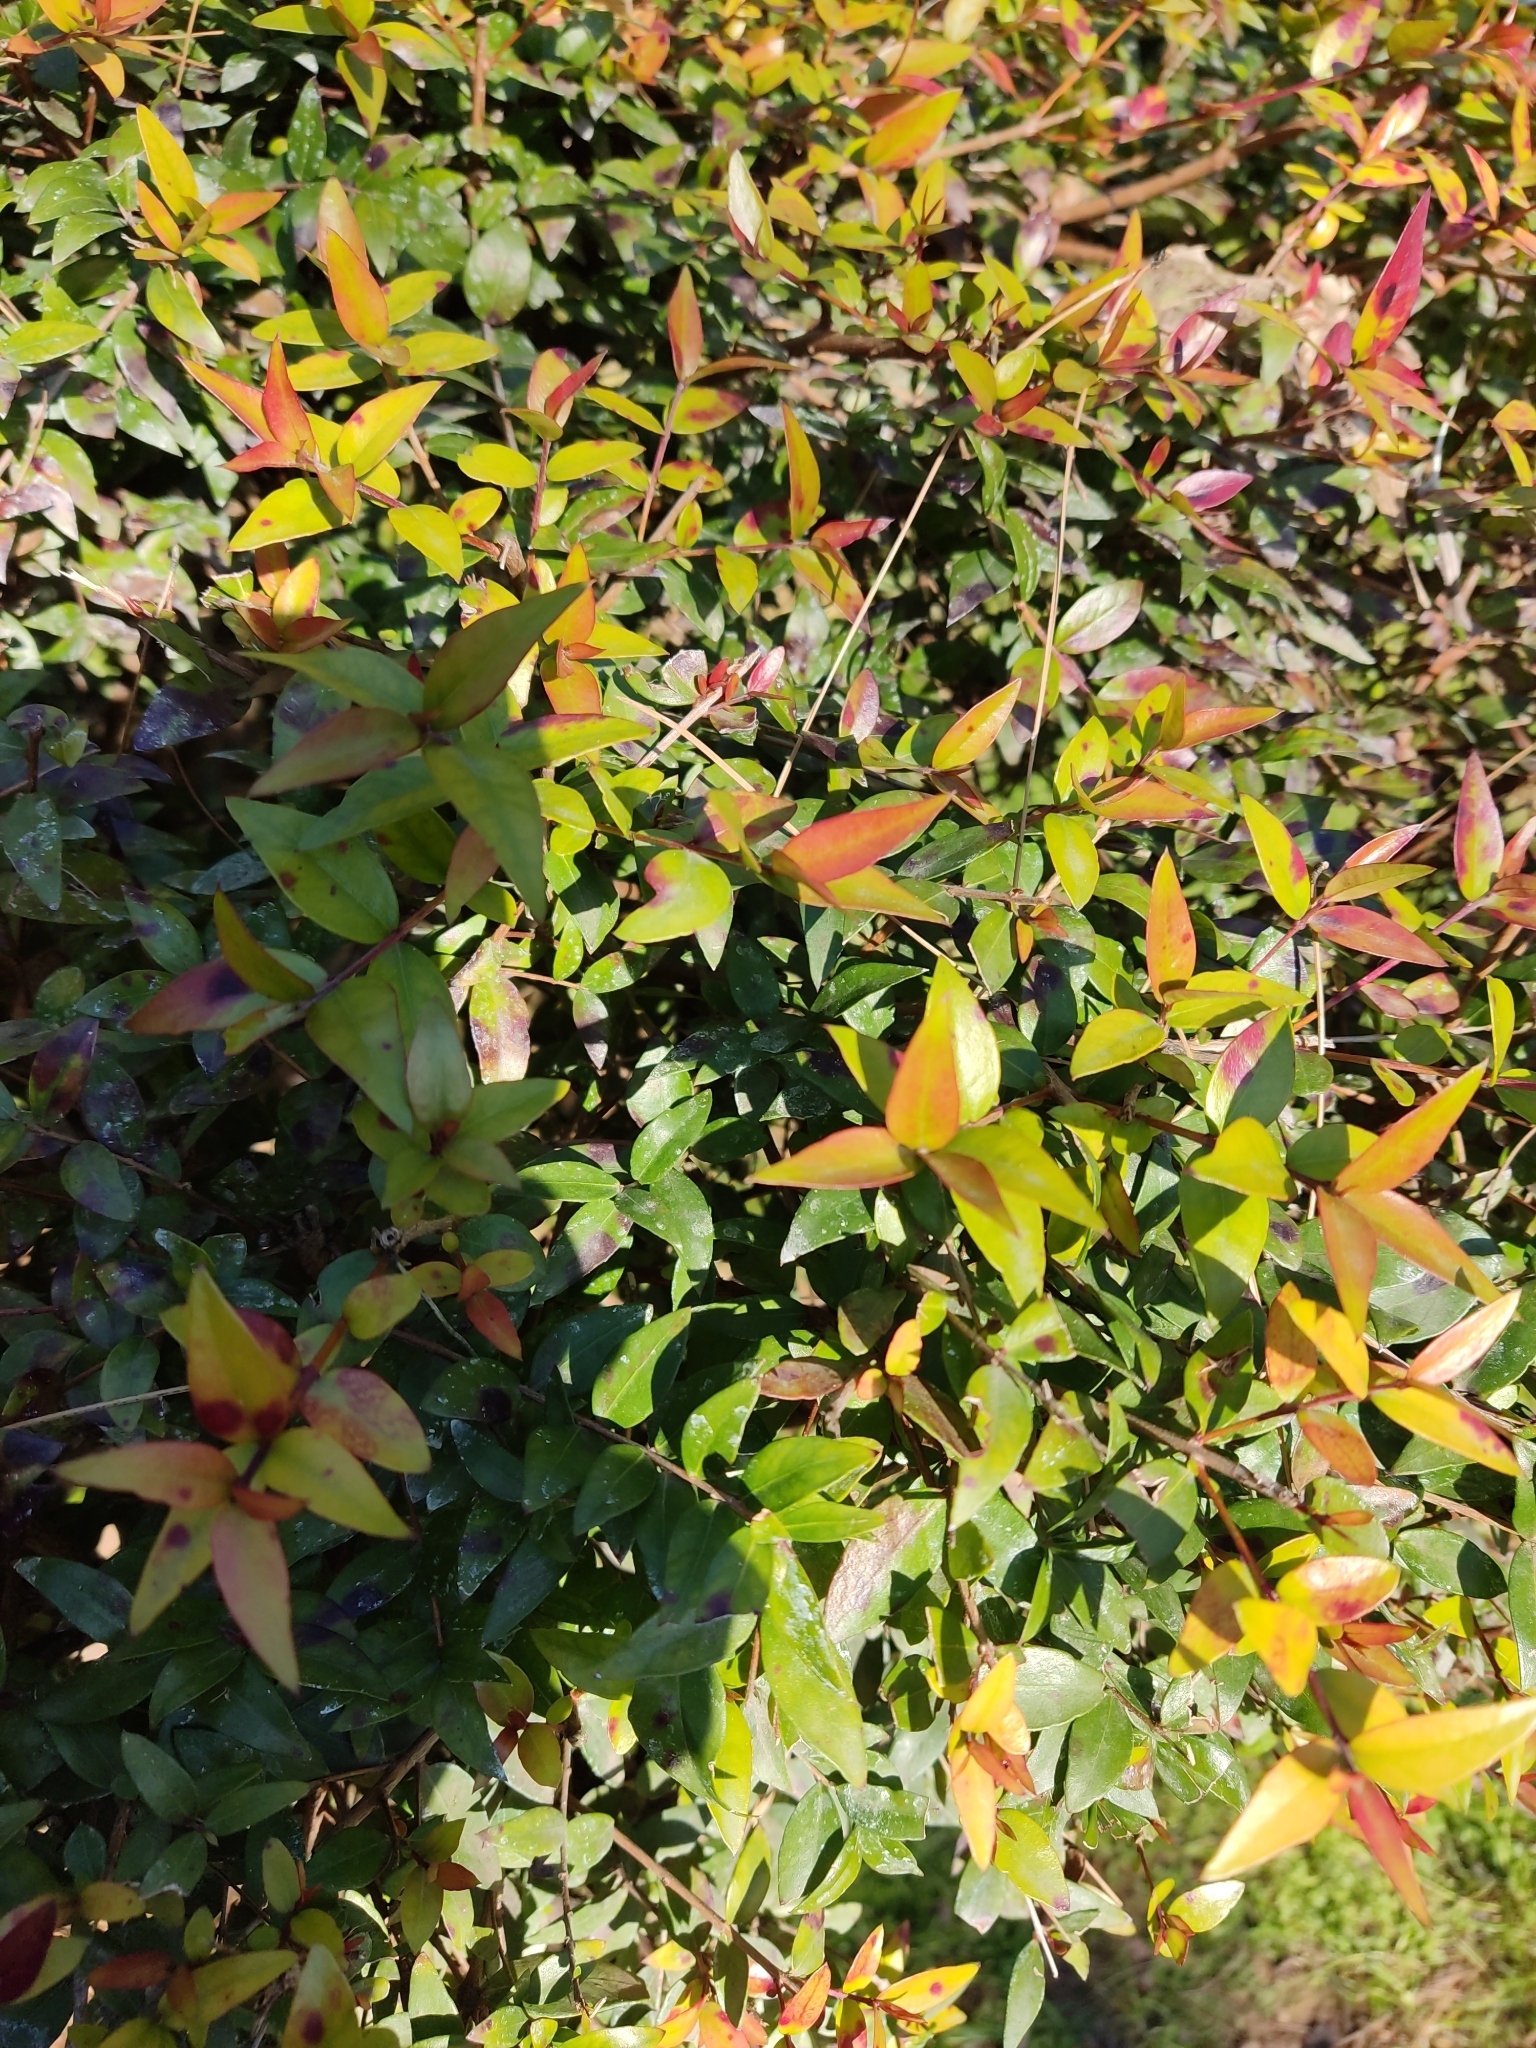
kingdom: Plantae
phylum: Tracheophyta
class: Magnoliopsida
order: Myrtales
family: Myrtaceae
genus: Myrtus
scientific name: Myrtus communis
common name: Myrtle
